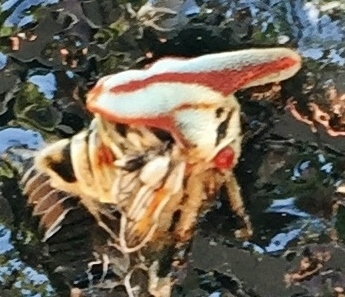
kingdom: Animalia
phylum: Arthropoda
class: Insecta
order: Hemiptera
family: Membracidae
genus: Platycotis
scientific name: Platycotis vittatus
